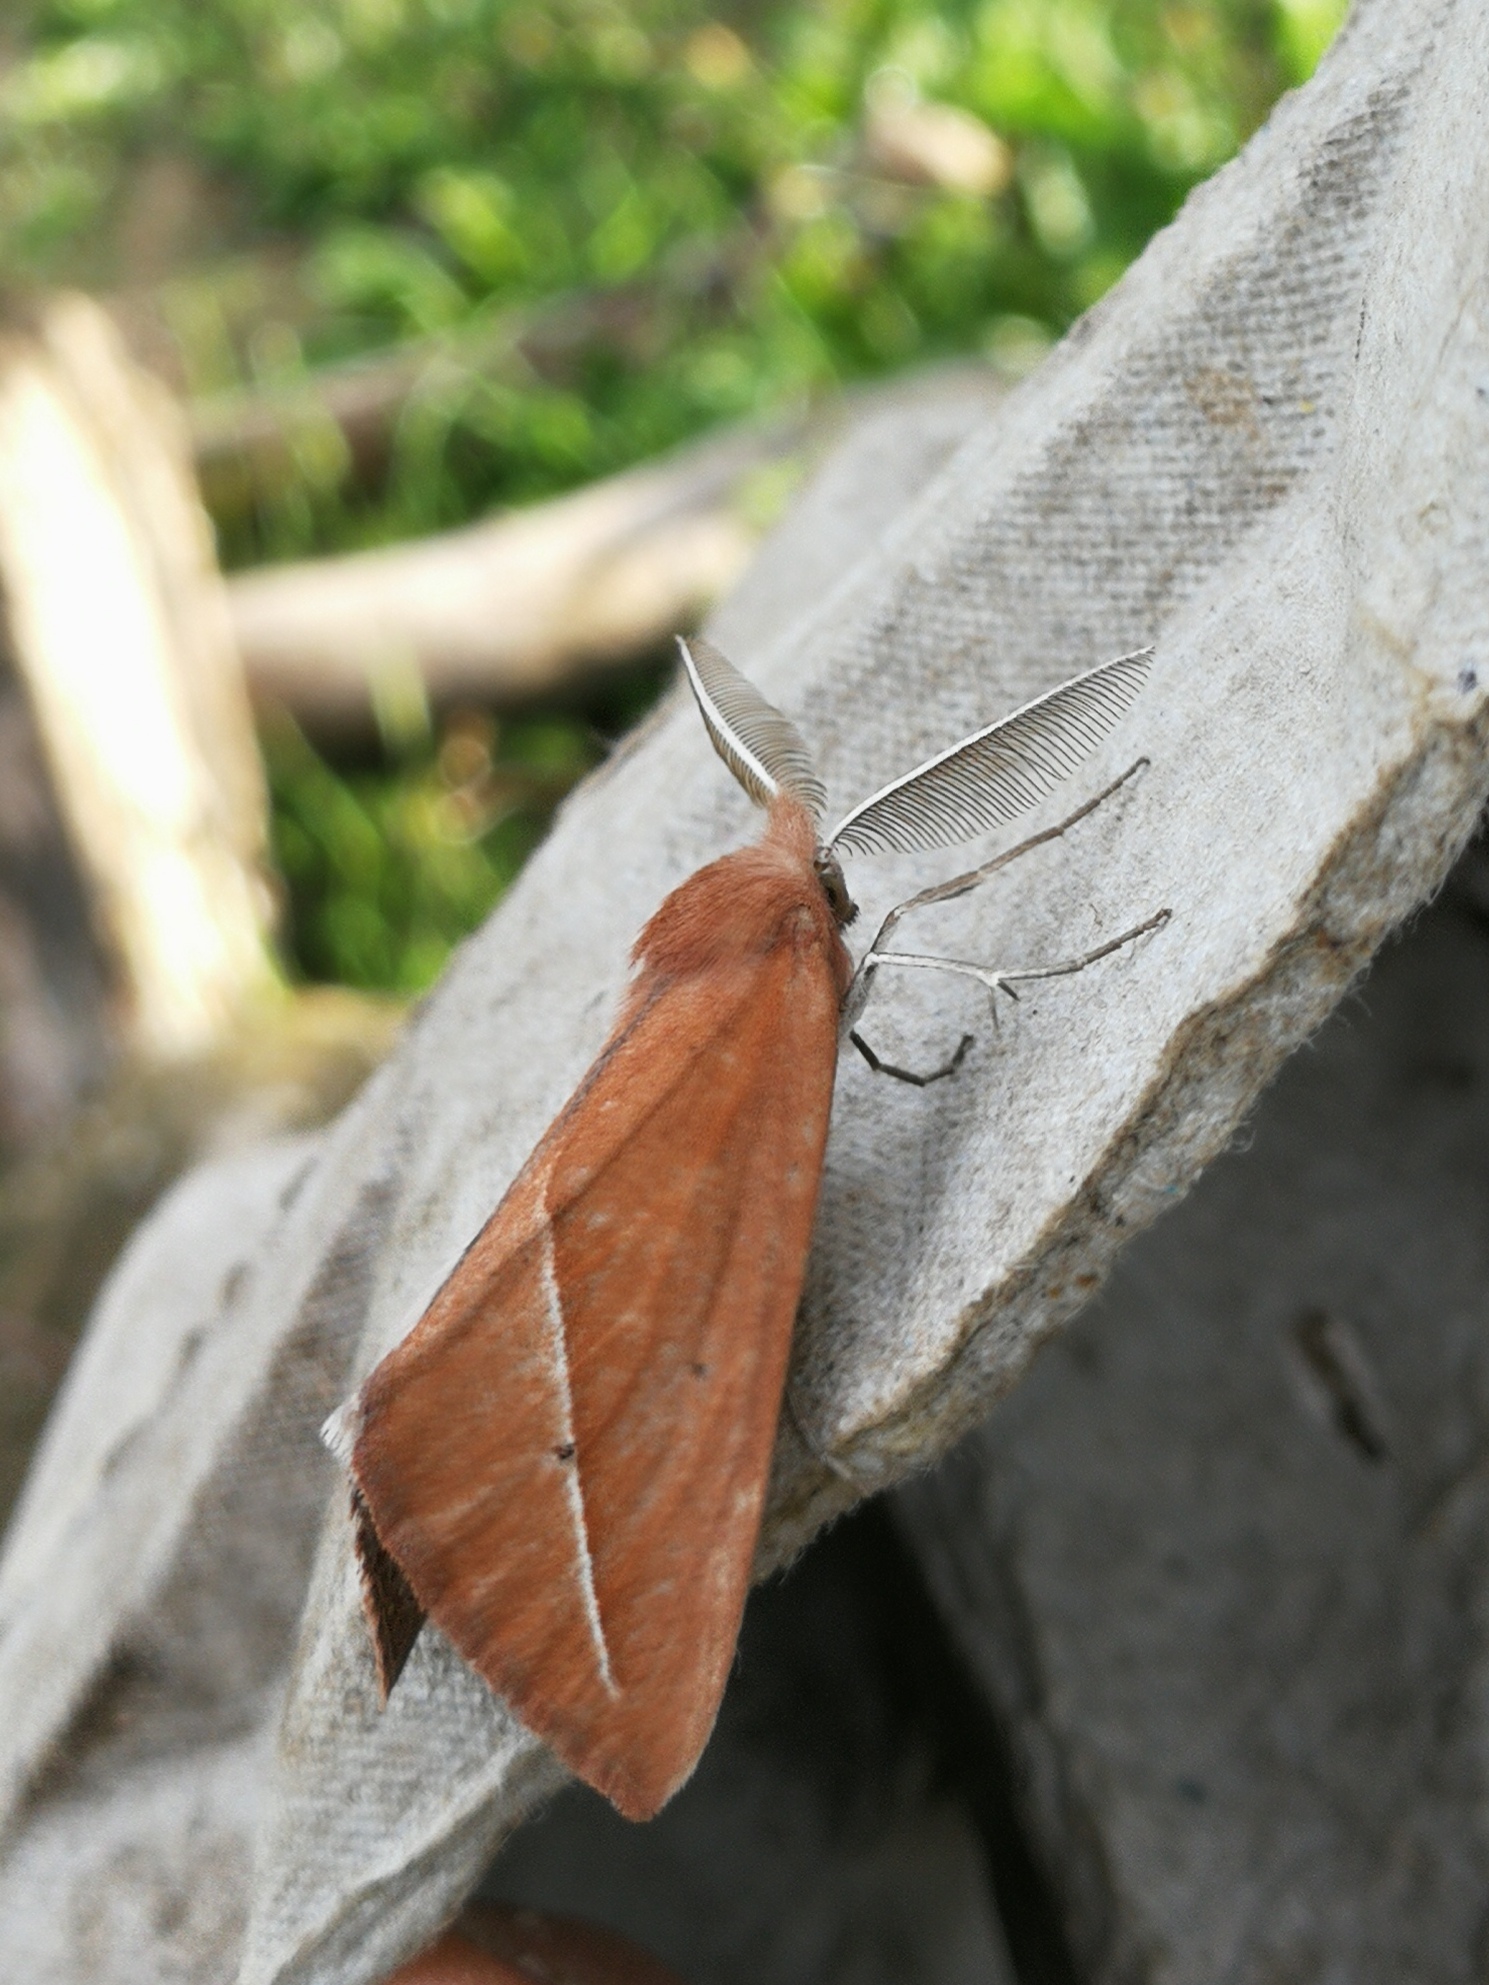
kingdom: Animalia
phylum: Arthropoda
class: Insecta
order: Lepidoptera
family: Geometridae
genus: Compsoptera
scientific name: Compsoptera opacaria
